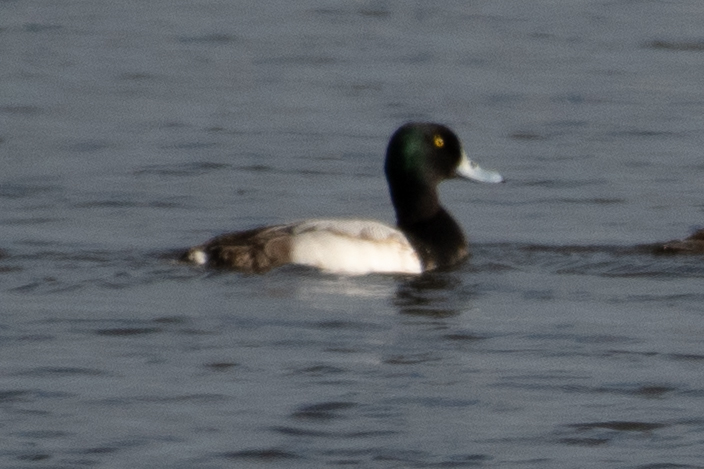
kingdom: Animalia
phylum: Chordata
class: Aves
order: Anseriformes
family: Anatidae
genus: Aythya
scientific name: Aythya marila
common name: Greater scaup
